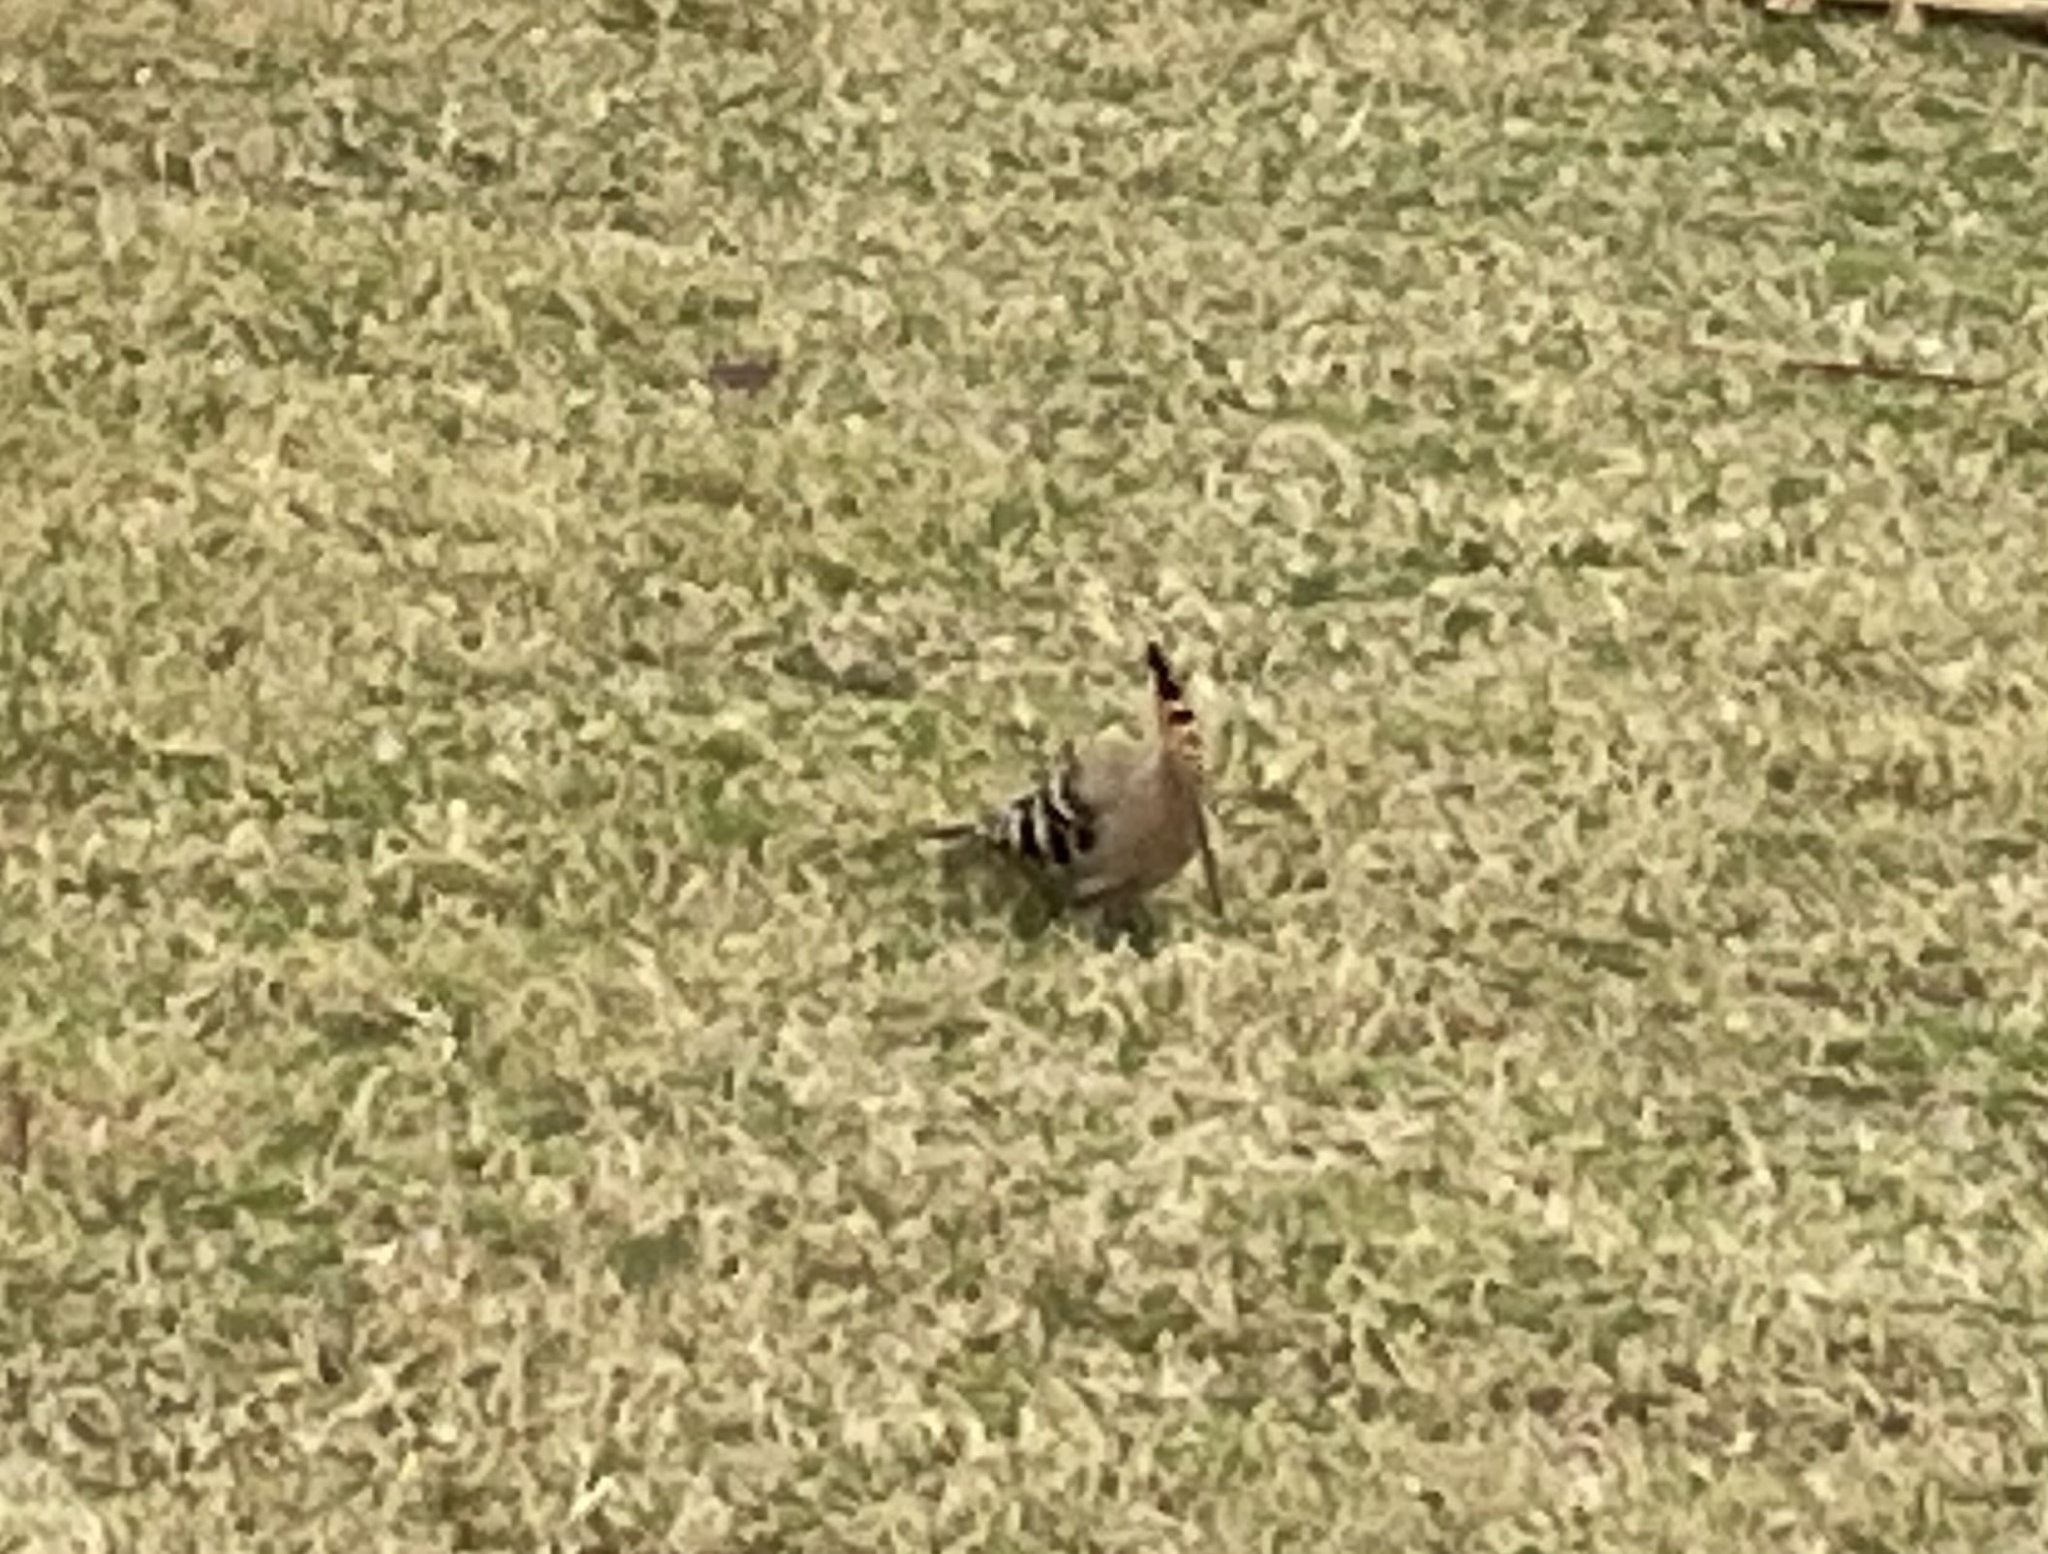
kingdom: Animalia
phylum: Chordata
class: Aves
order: Bucerotiformes
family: Upupidae
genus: Upupa
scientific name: Upupa epops
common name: Eurasian hoopoe
